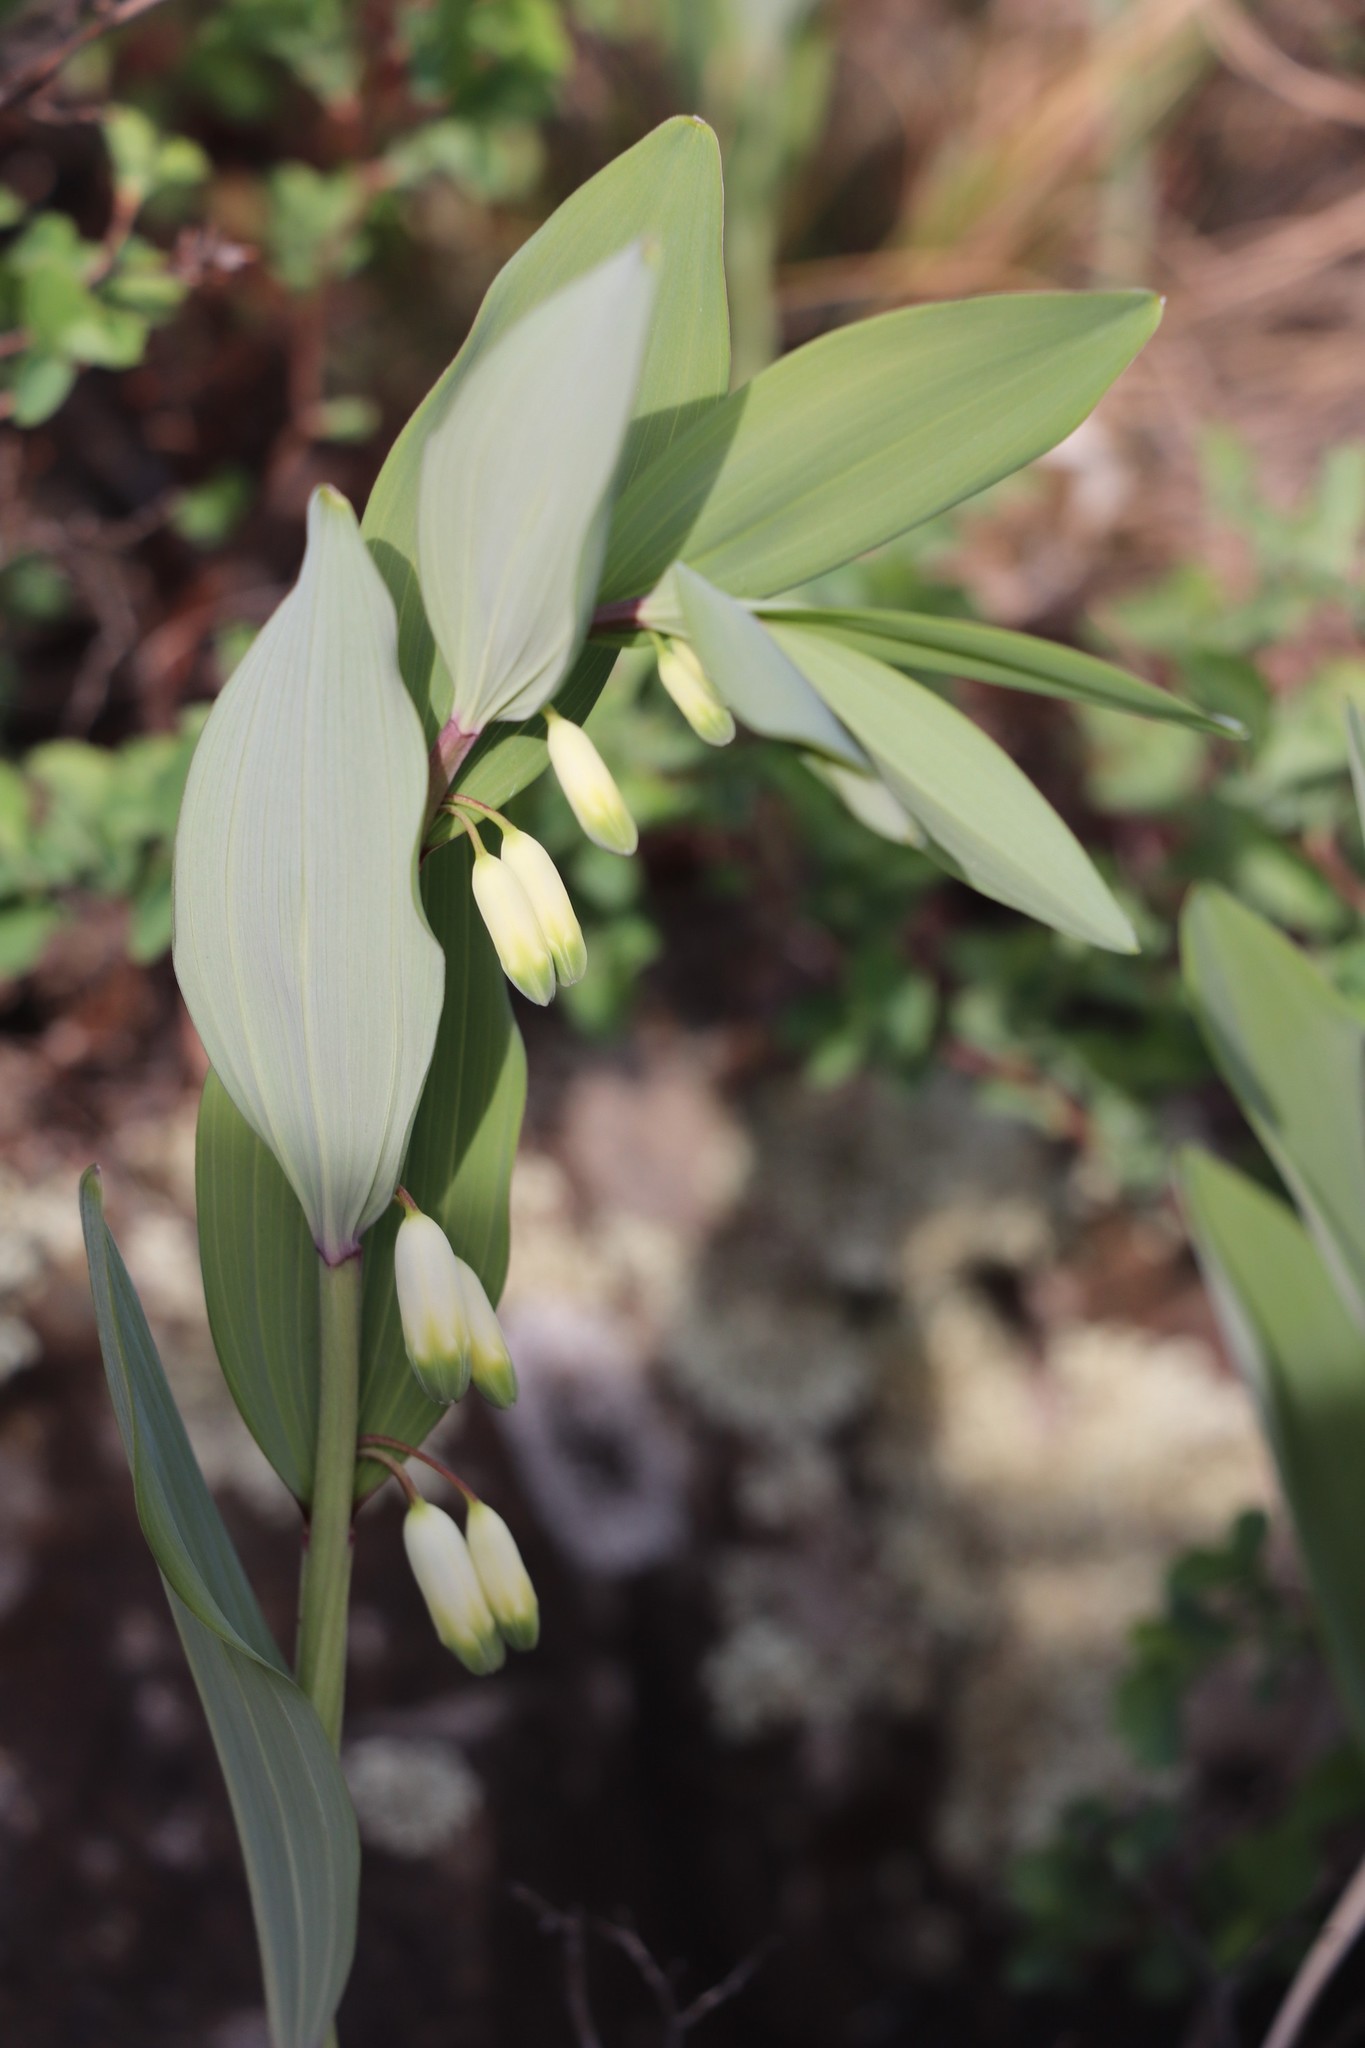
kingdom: Plantae
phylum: Tracheophyta
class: Liliopsida
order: Asparagales
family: Asparagaceae
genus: Polygonatum
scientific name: Polygonatum odoratum
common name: Angular solomon's-seal
